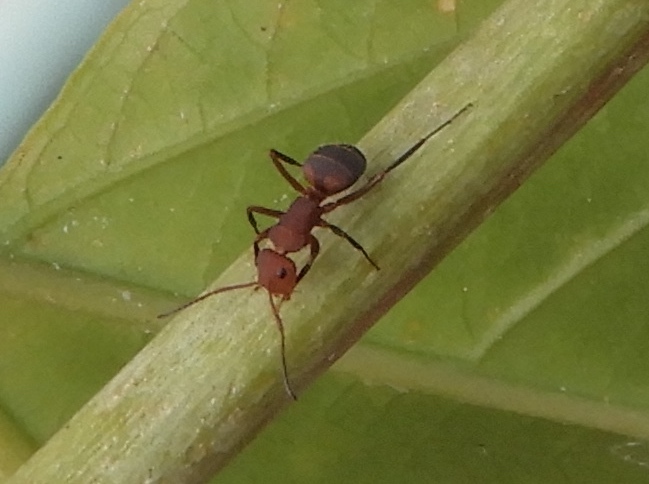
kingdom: Animalia
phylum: Arthropoda
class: Insecta
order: Hymenoptera
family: Formicidae
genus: Camponotus
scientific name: Camponotus rectangularis
